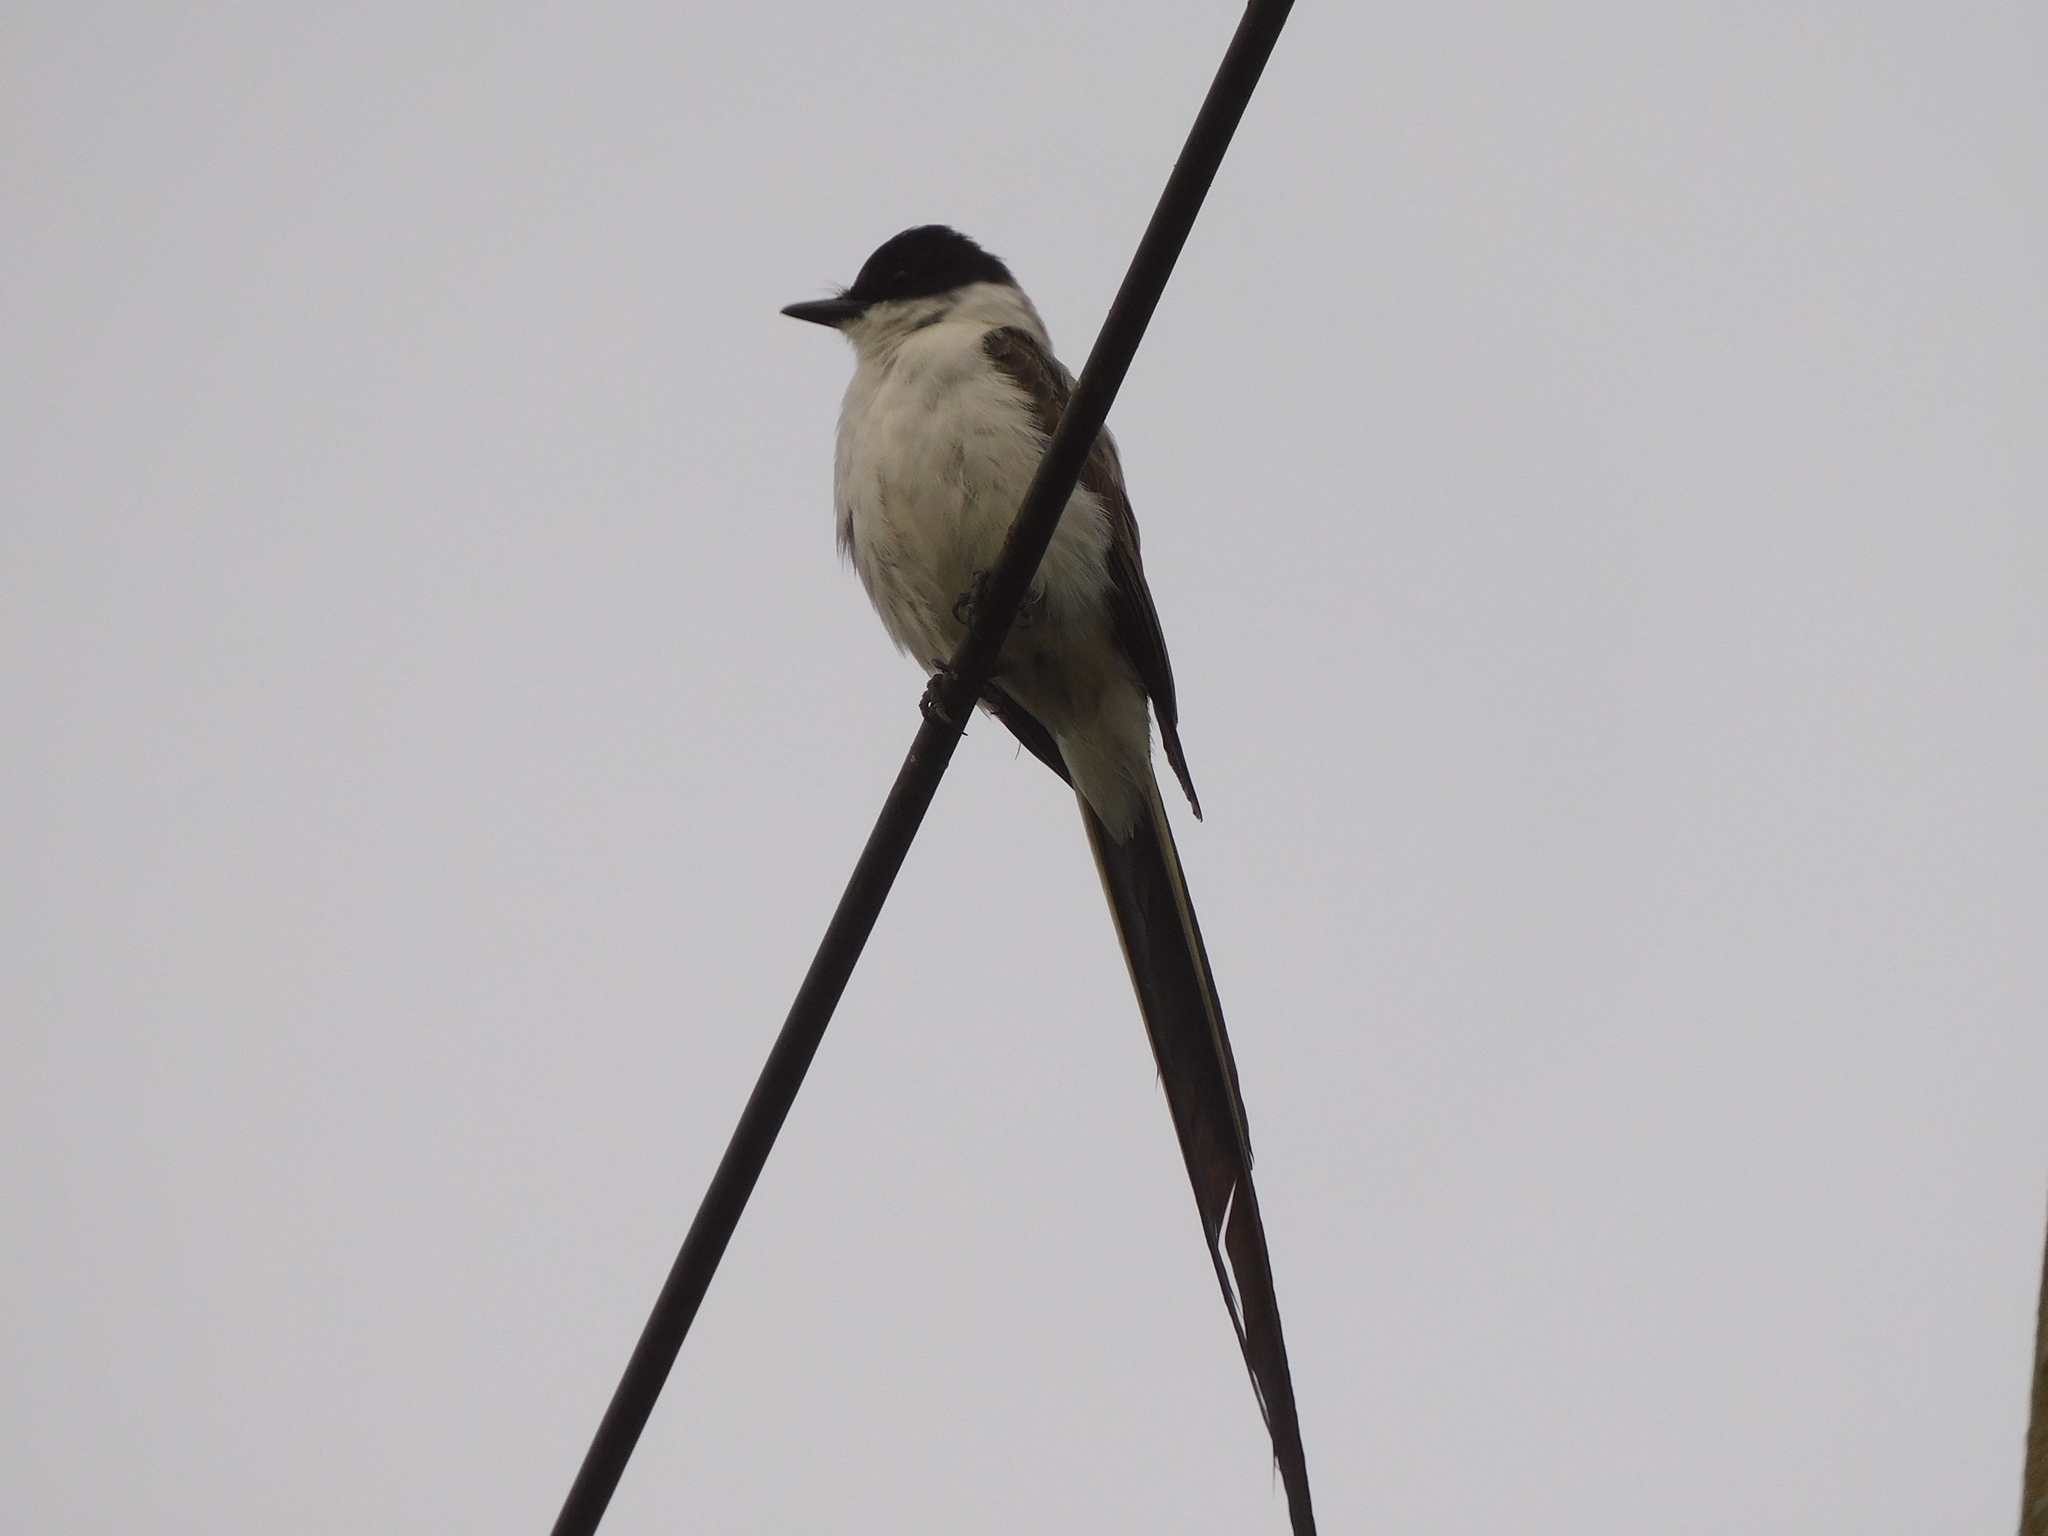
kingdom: Animalia
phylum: Chordata
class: Aves
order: Passeriformes
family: Tyrannidae
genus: Tyrannus
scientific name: Tyrannus savana
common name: Fork-tailed flycatcher
